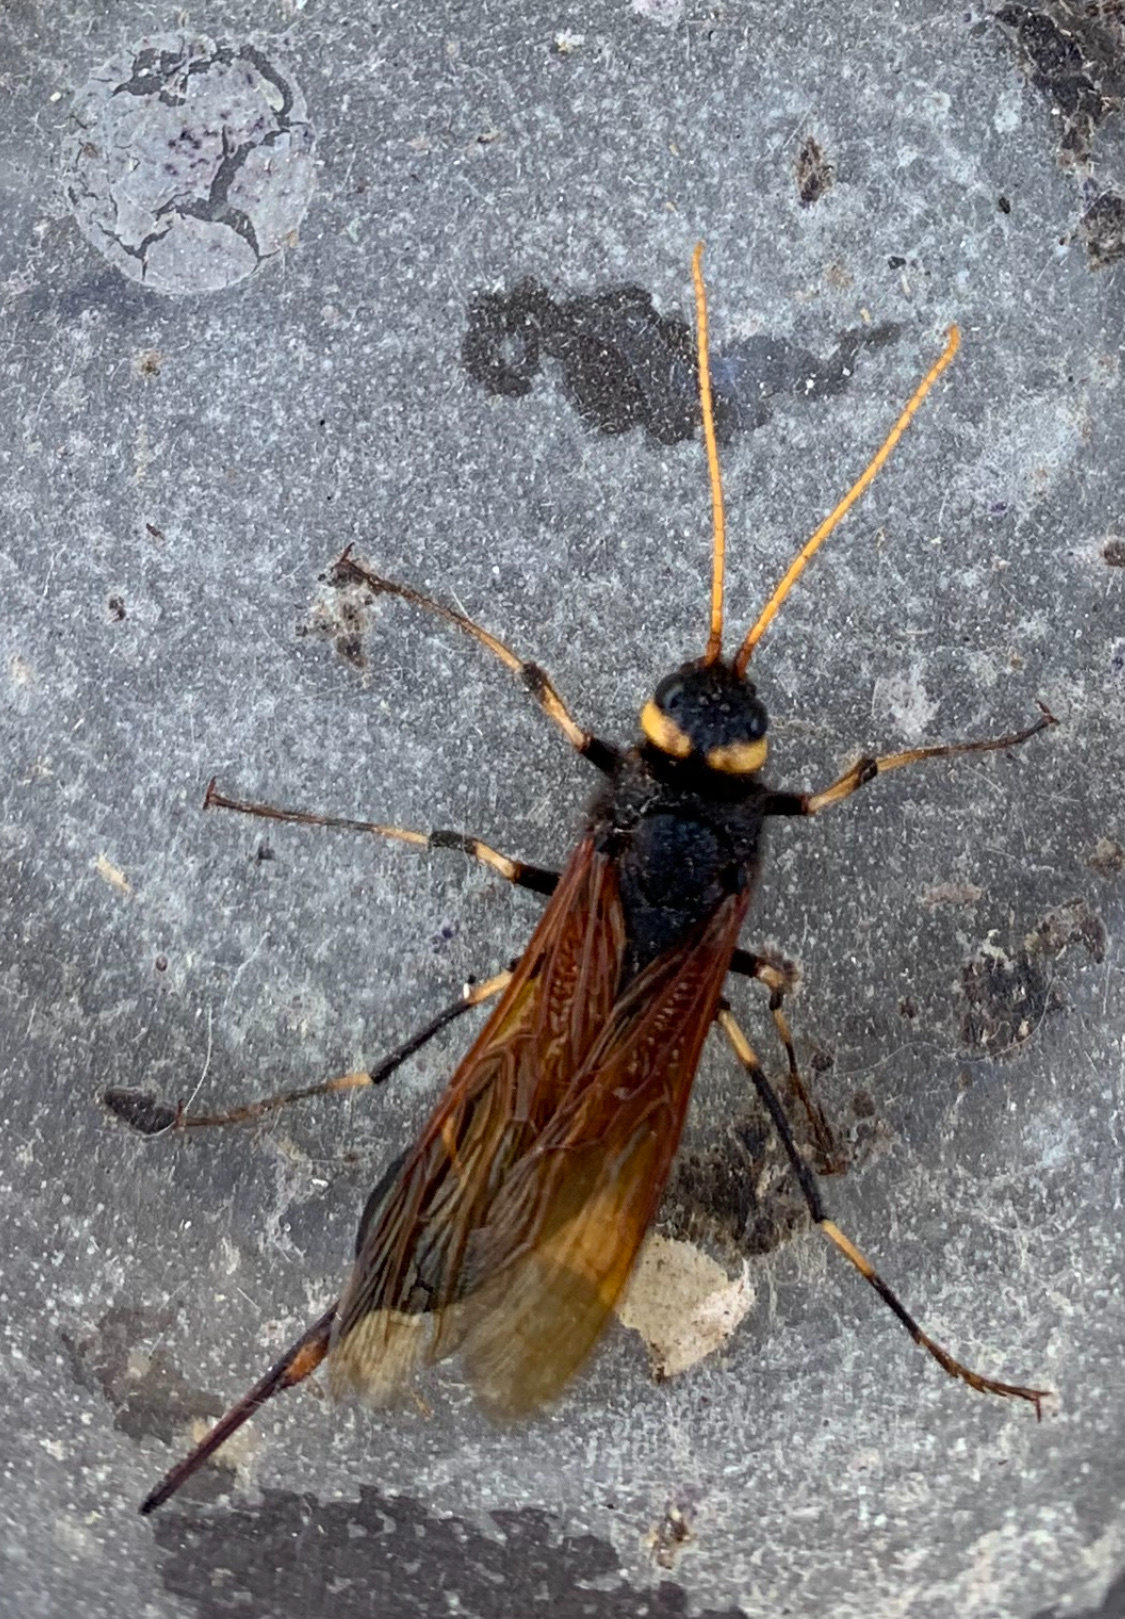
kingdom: Animalia
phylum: Arthropoda
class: Insecta
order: Hymenoptera
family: Siricidae
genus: Urocerus
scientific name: Urocerus californicus
